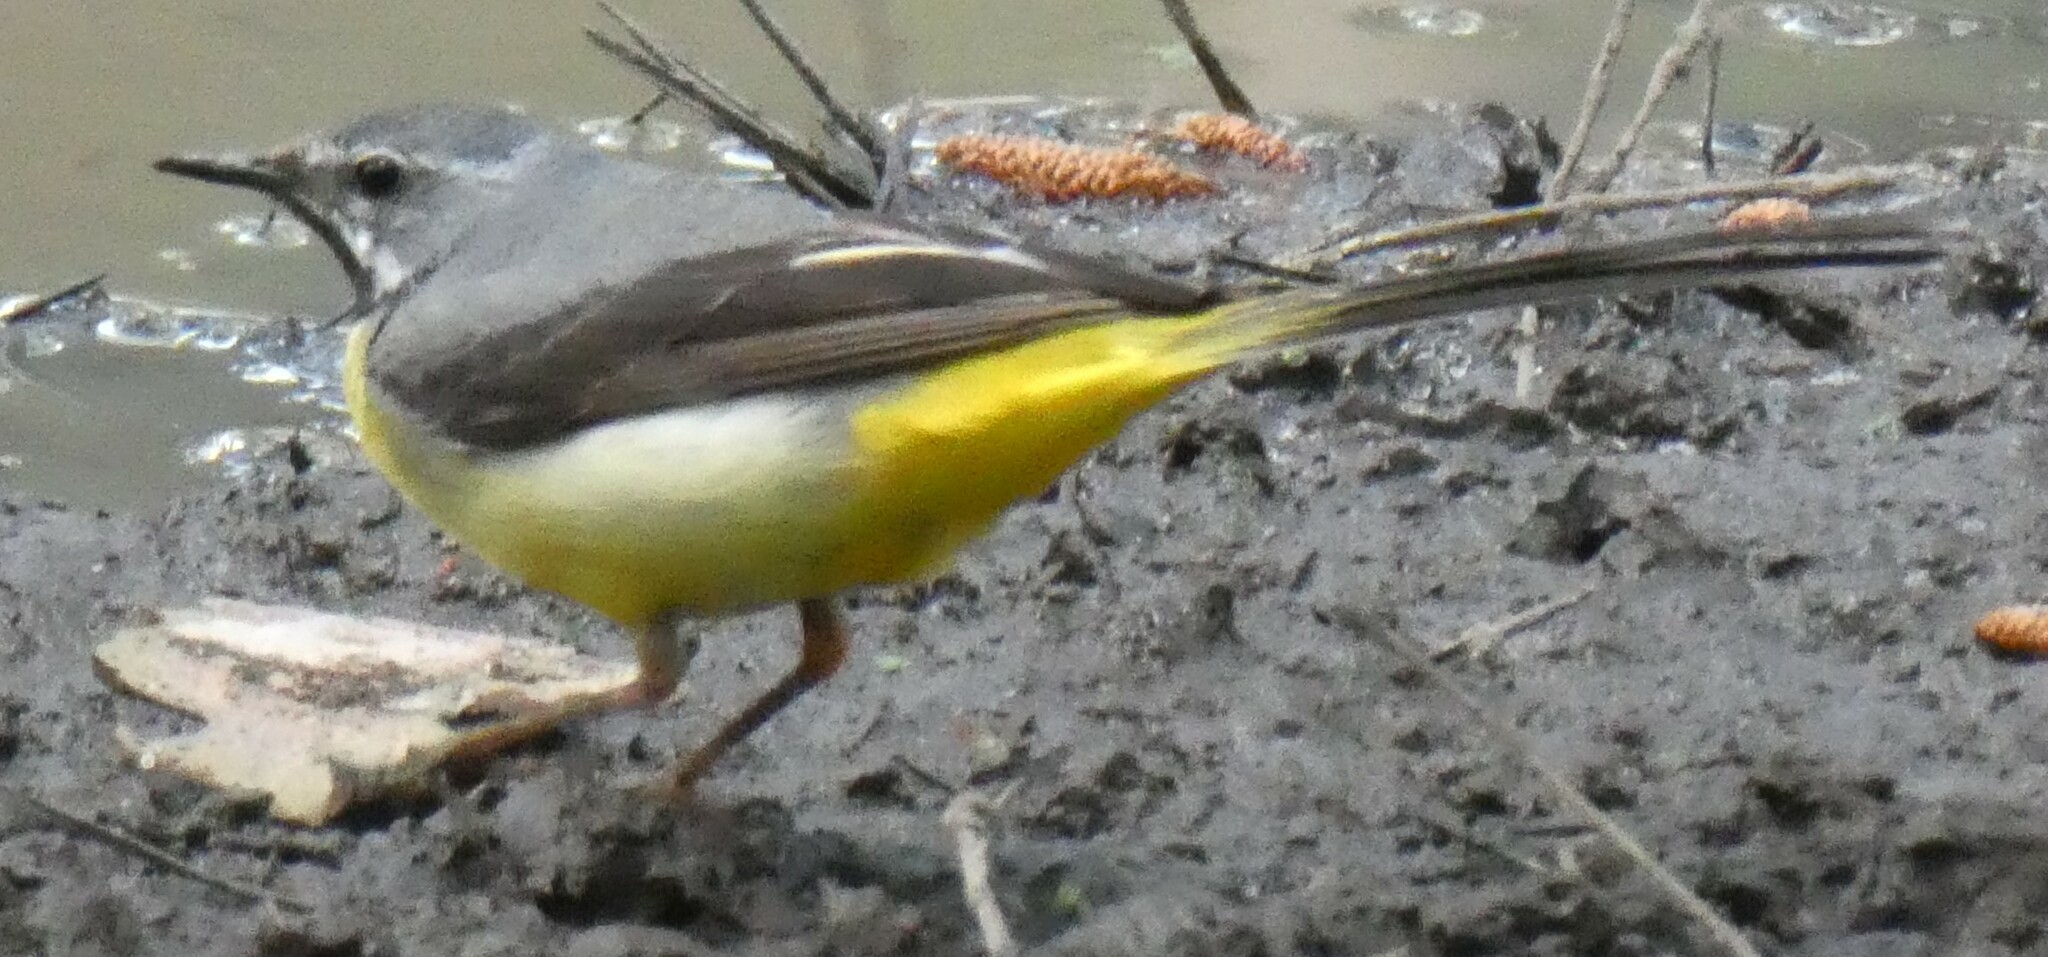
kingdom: Animalia
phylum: Chordata
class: Aves
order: Passeriformes
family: Motacillidae
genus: Motacilla
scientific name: Motacilla cinerea
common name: Grey wagtail
